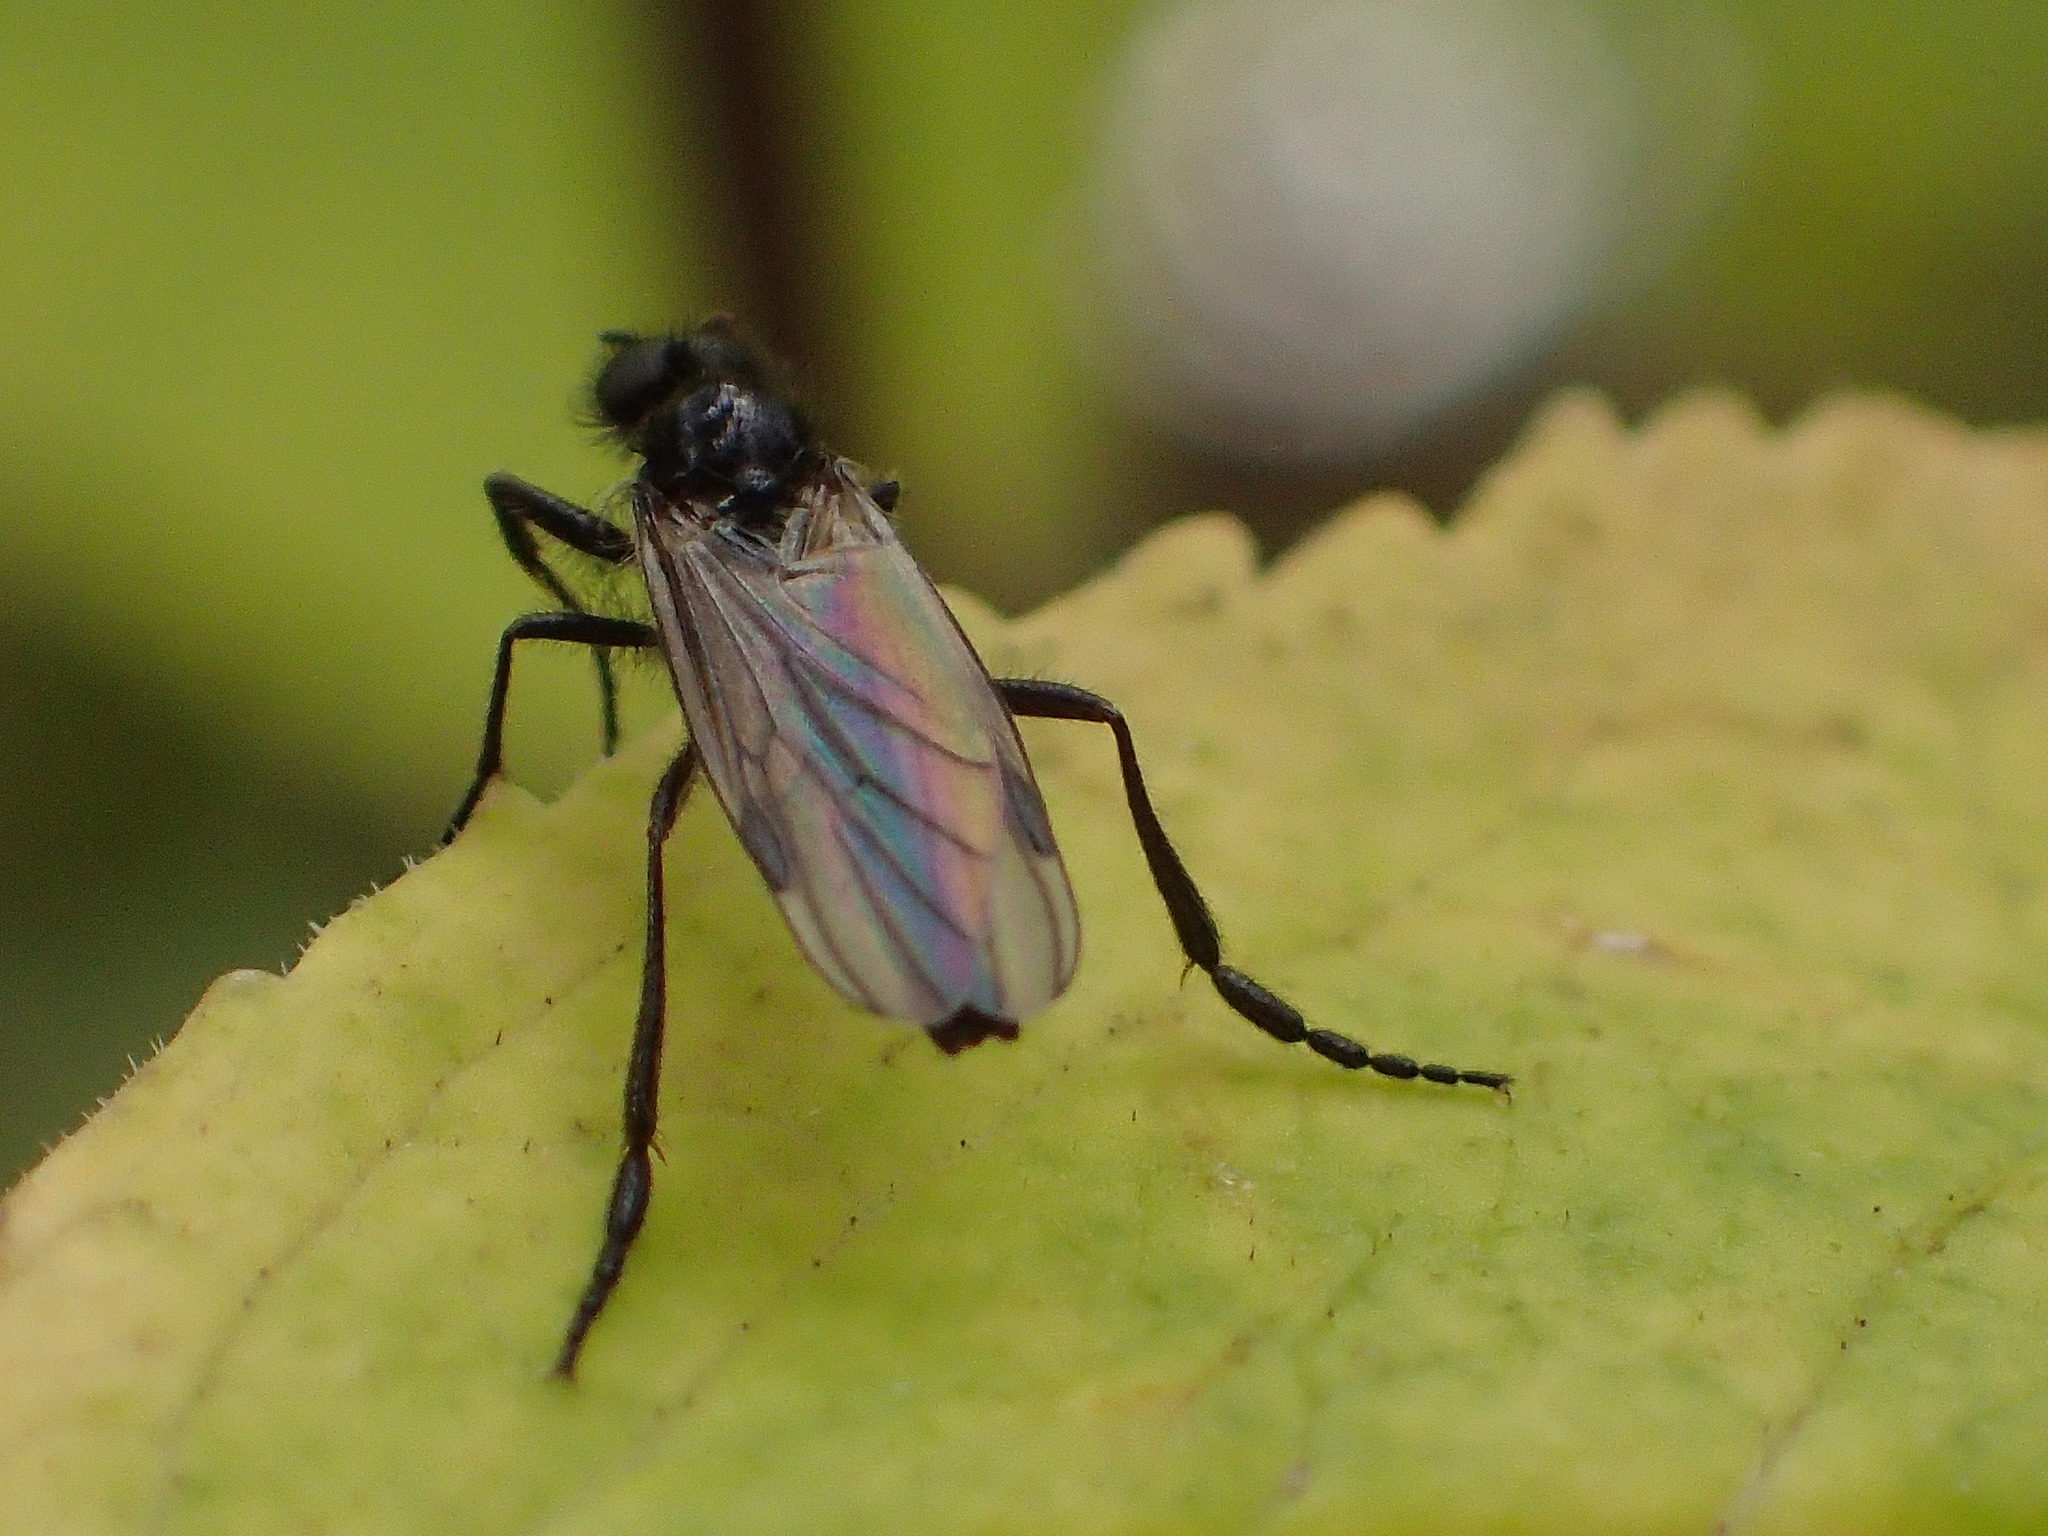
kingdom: Animalia
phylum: Arthropoda
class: Insecta
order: Diptera
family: Bibionidae
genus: Bibio
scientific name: Bibio longipes
